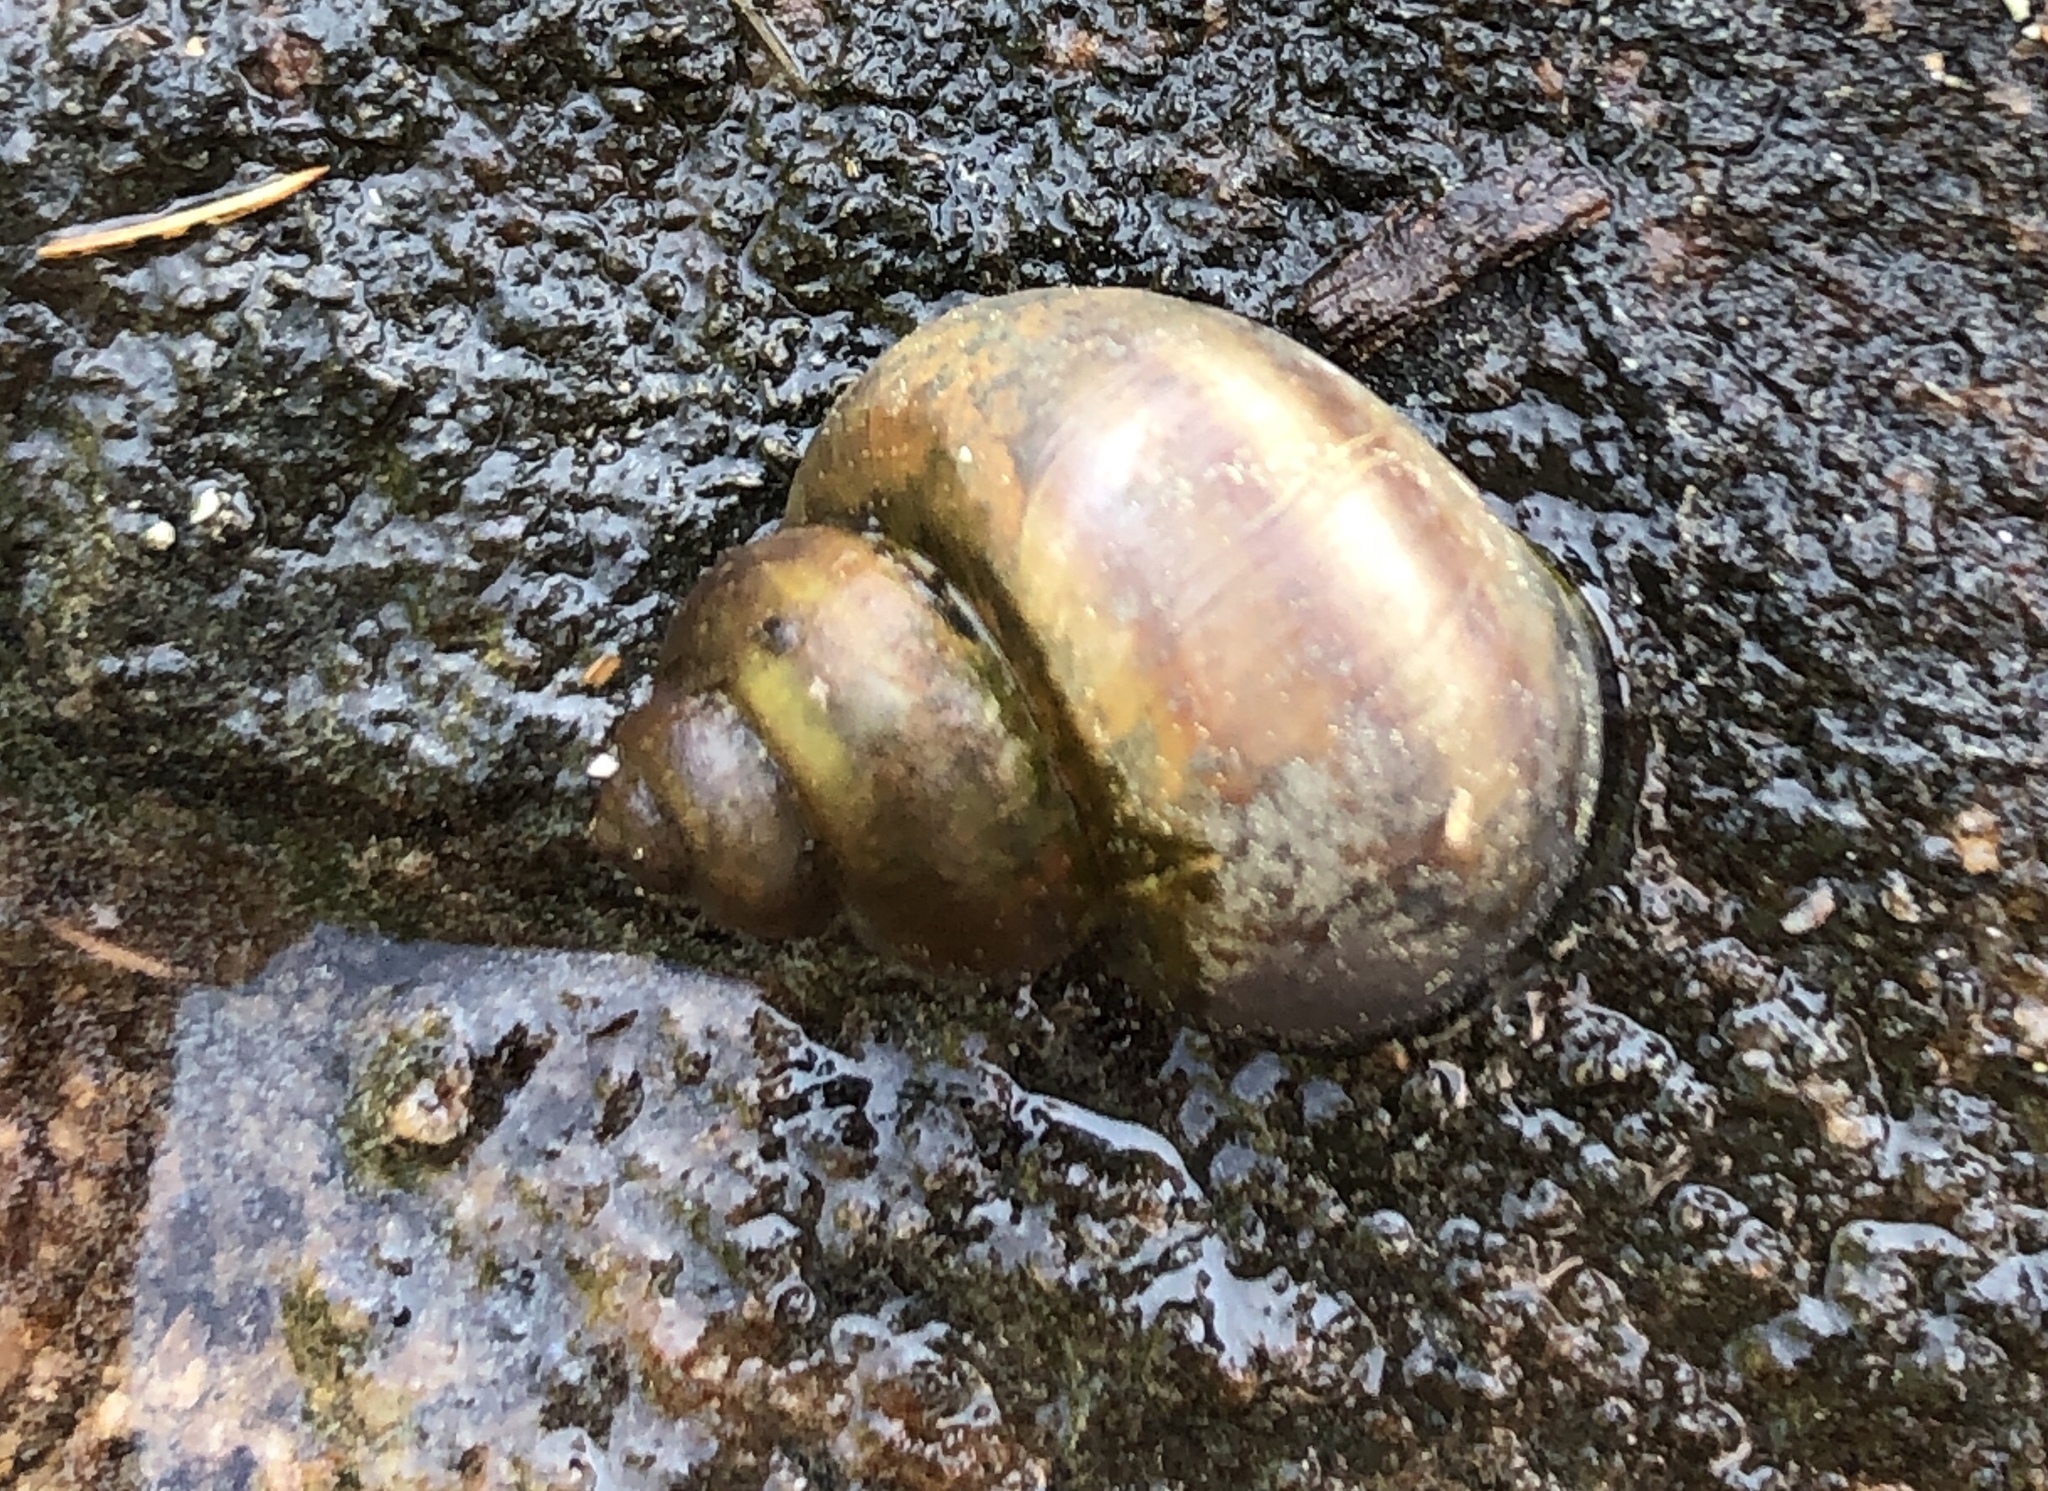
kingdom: Animalia
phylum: Mollusca
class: Gastropoda
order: Architaenioglossa
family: Viviparidae
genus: Callinina
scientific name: Callinina georgiana
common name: Banded mystery snail
